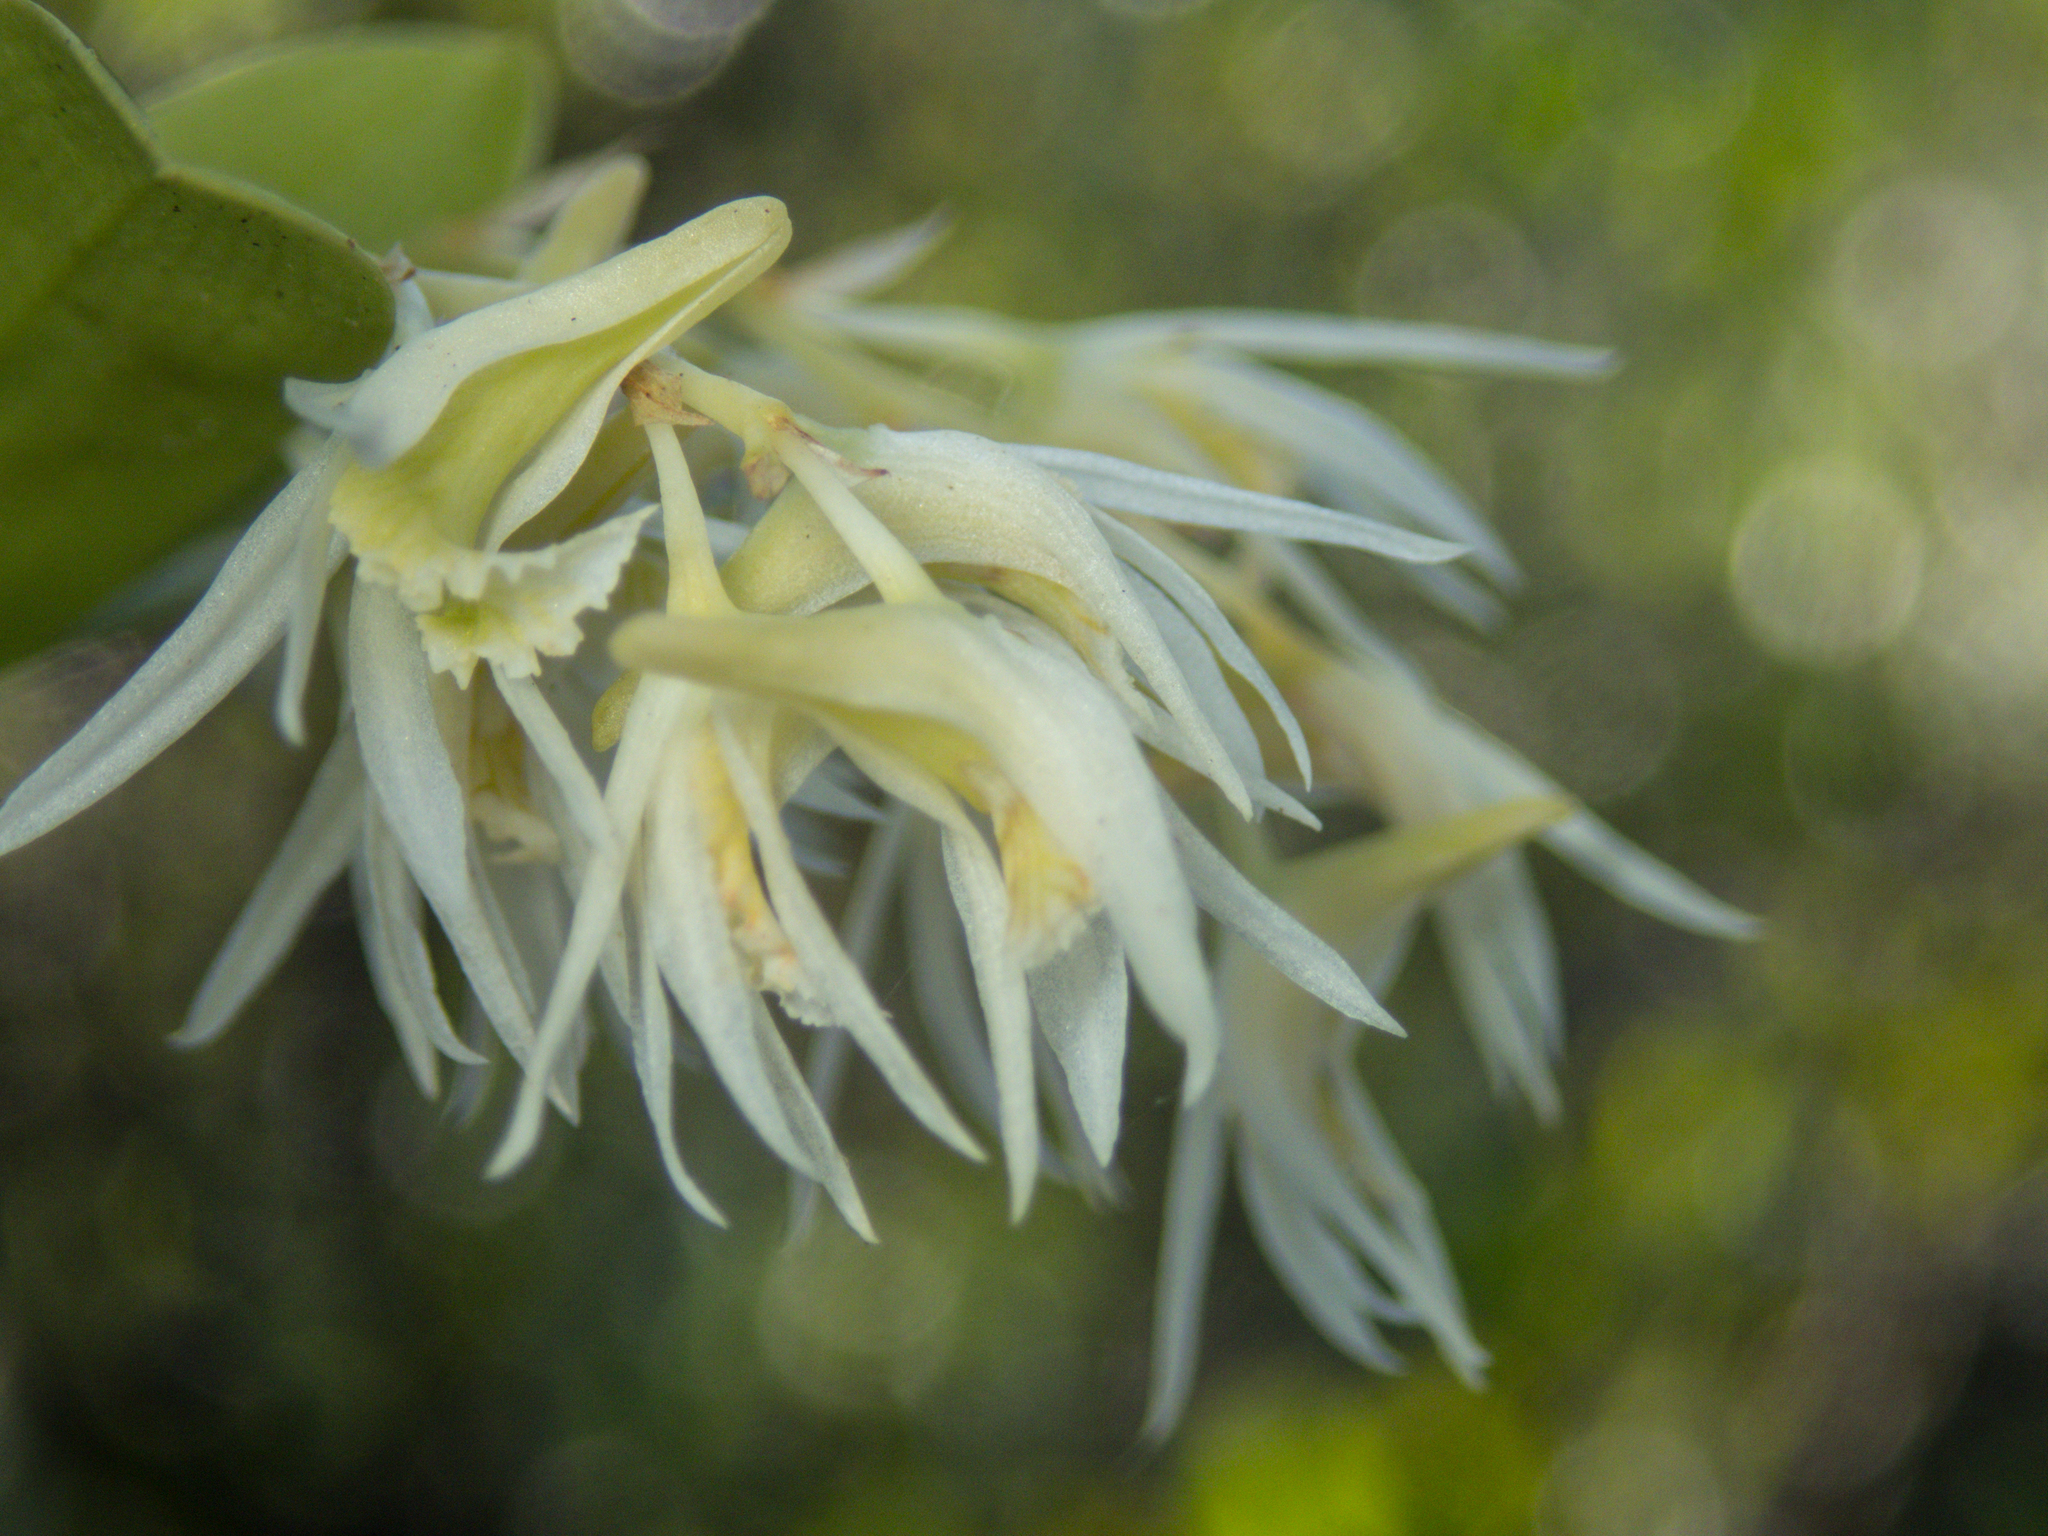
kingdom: Plantae
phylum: Tracheophyta
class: Liliopsida
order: Asparagales
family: Orchidaceae
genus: Dendrobium
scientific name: Dendrobium kratense
